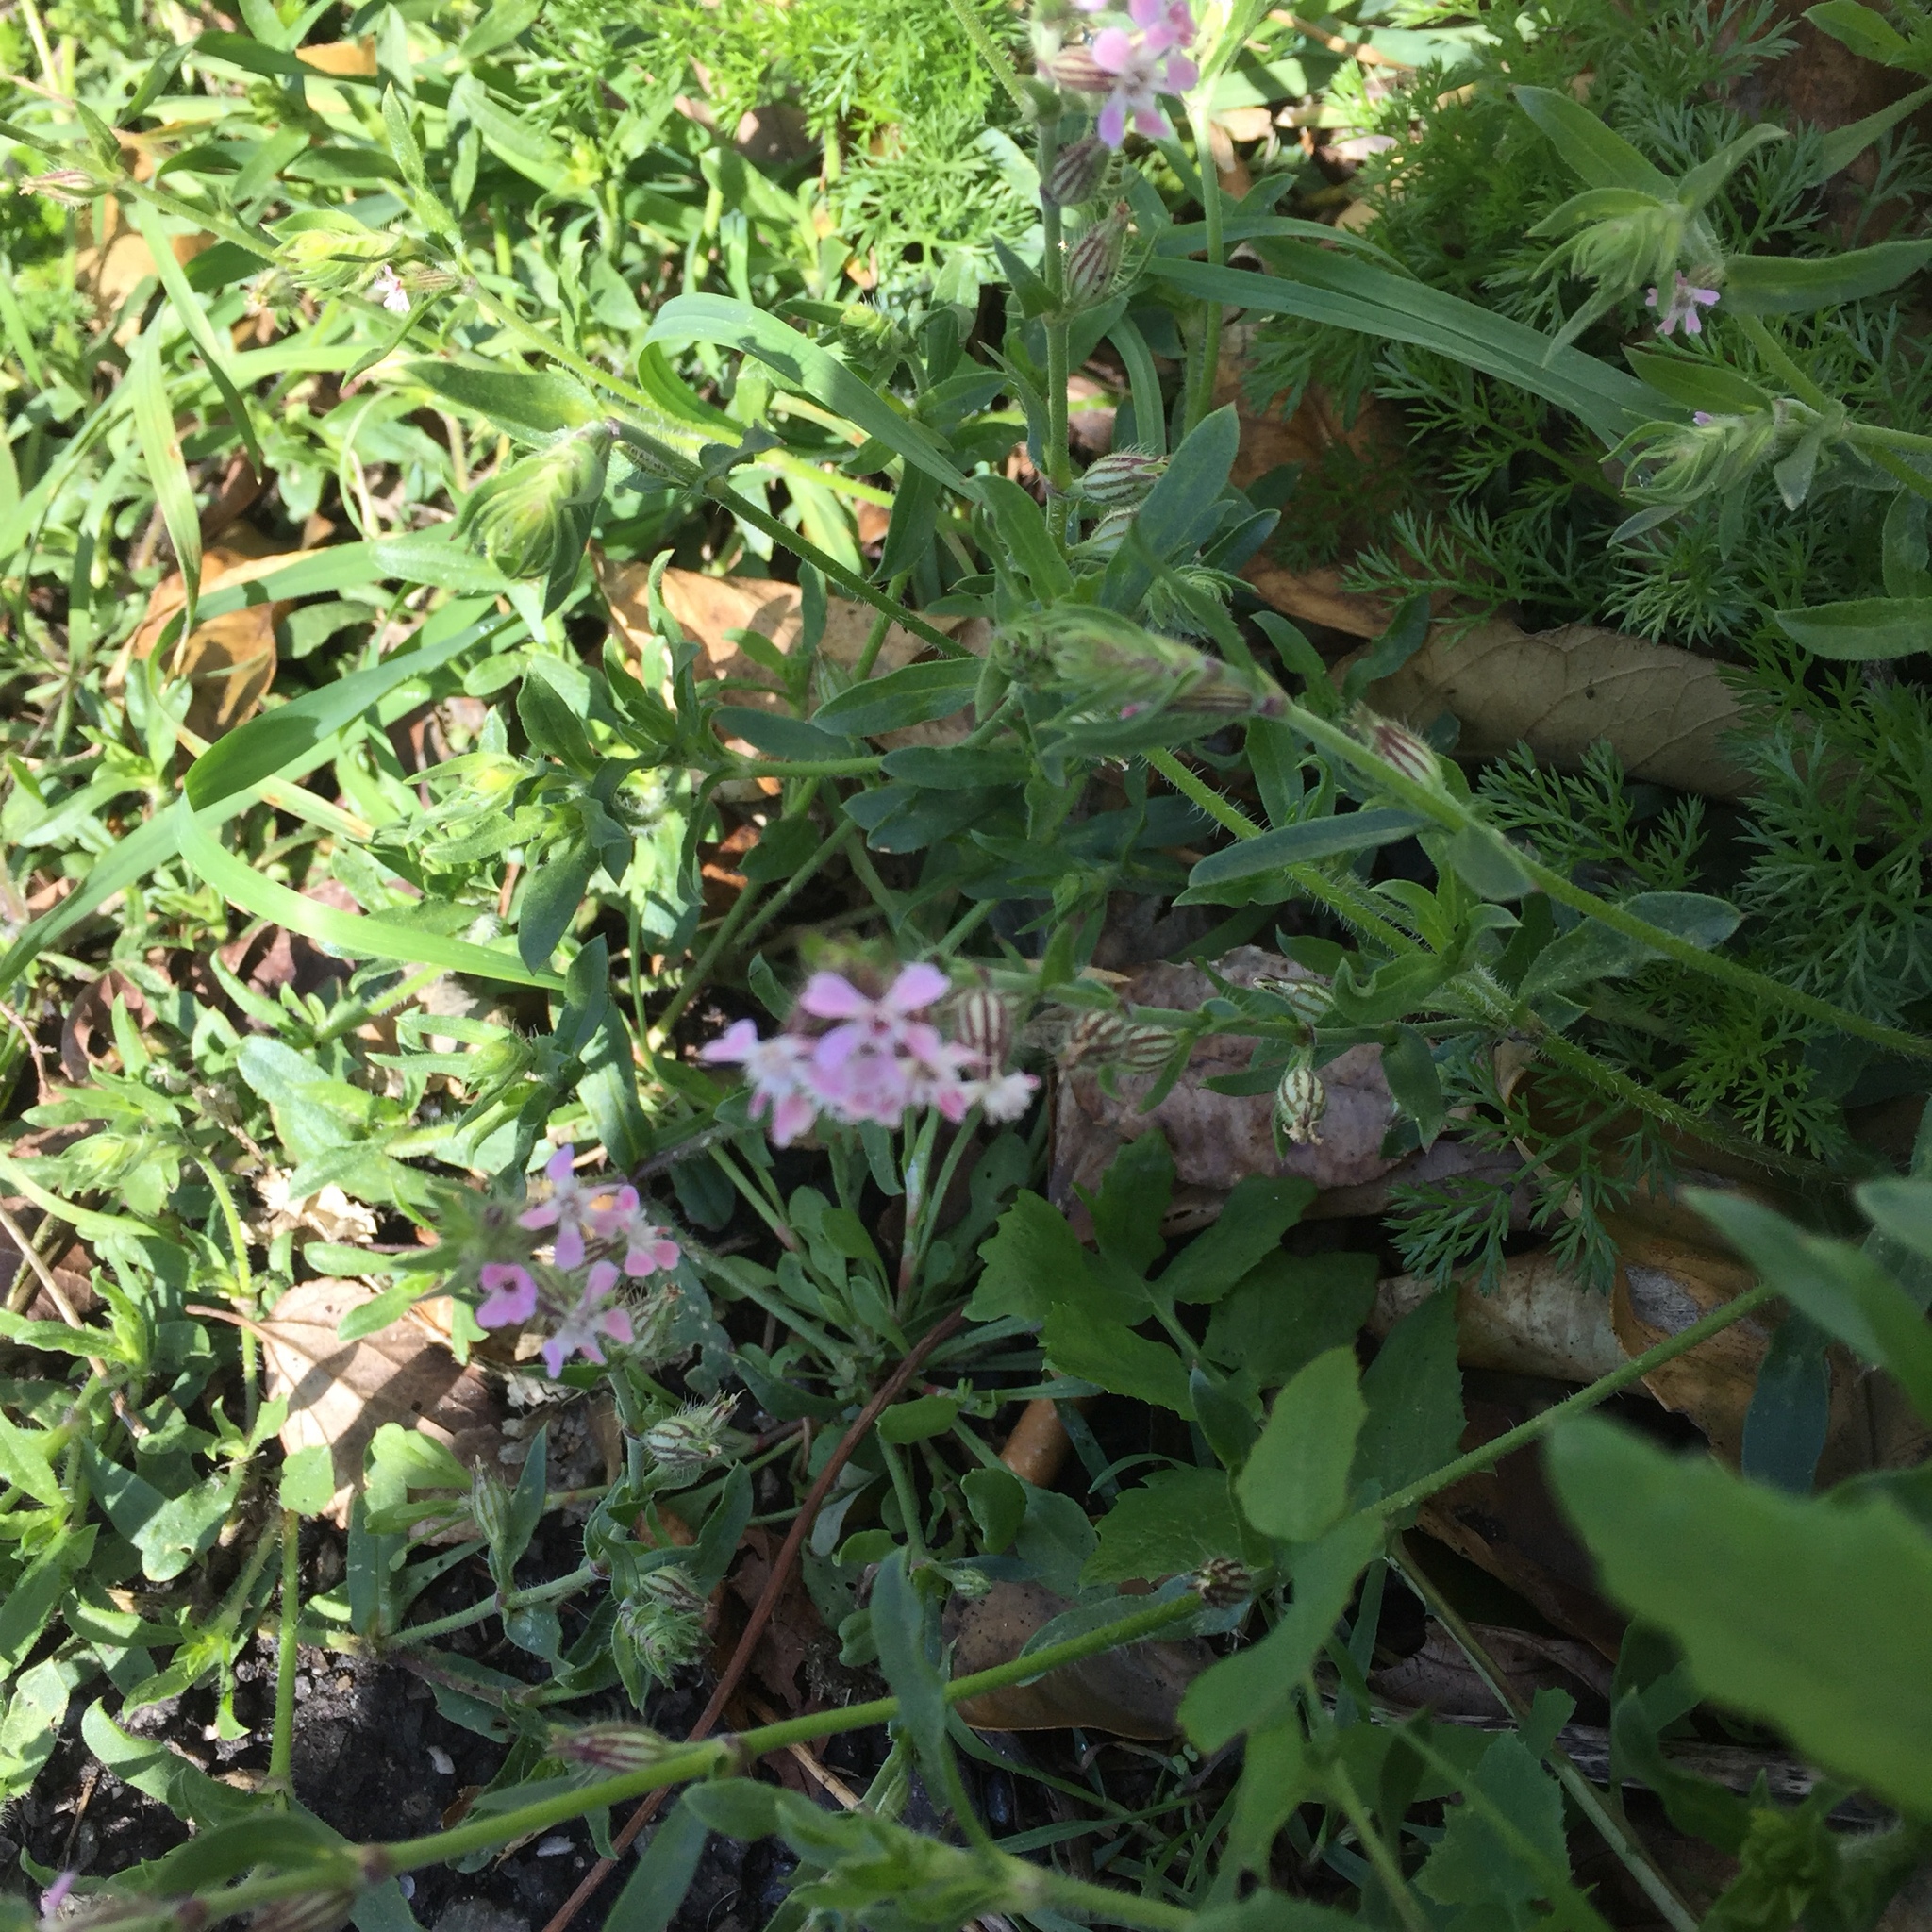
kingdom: Plantae
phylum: Tracheophyta
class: Magnoliopsida
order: Caryophyllales
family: Caryophyllaceae
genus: Silene
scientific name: Silene gallica
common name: Small-flowered catchfly
